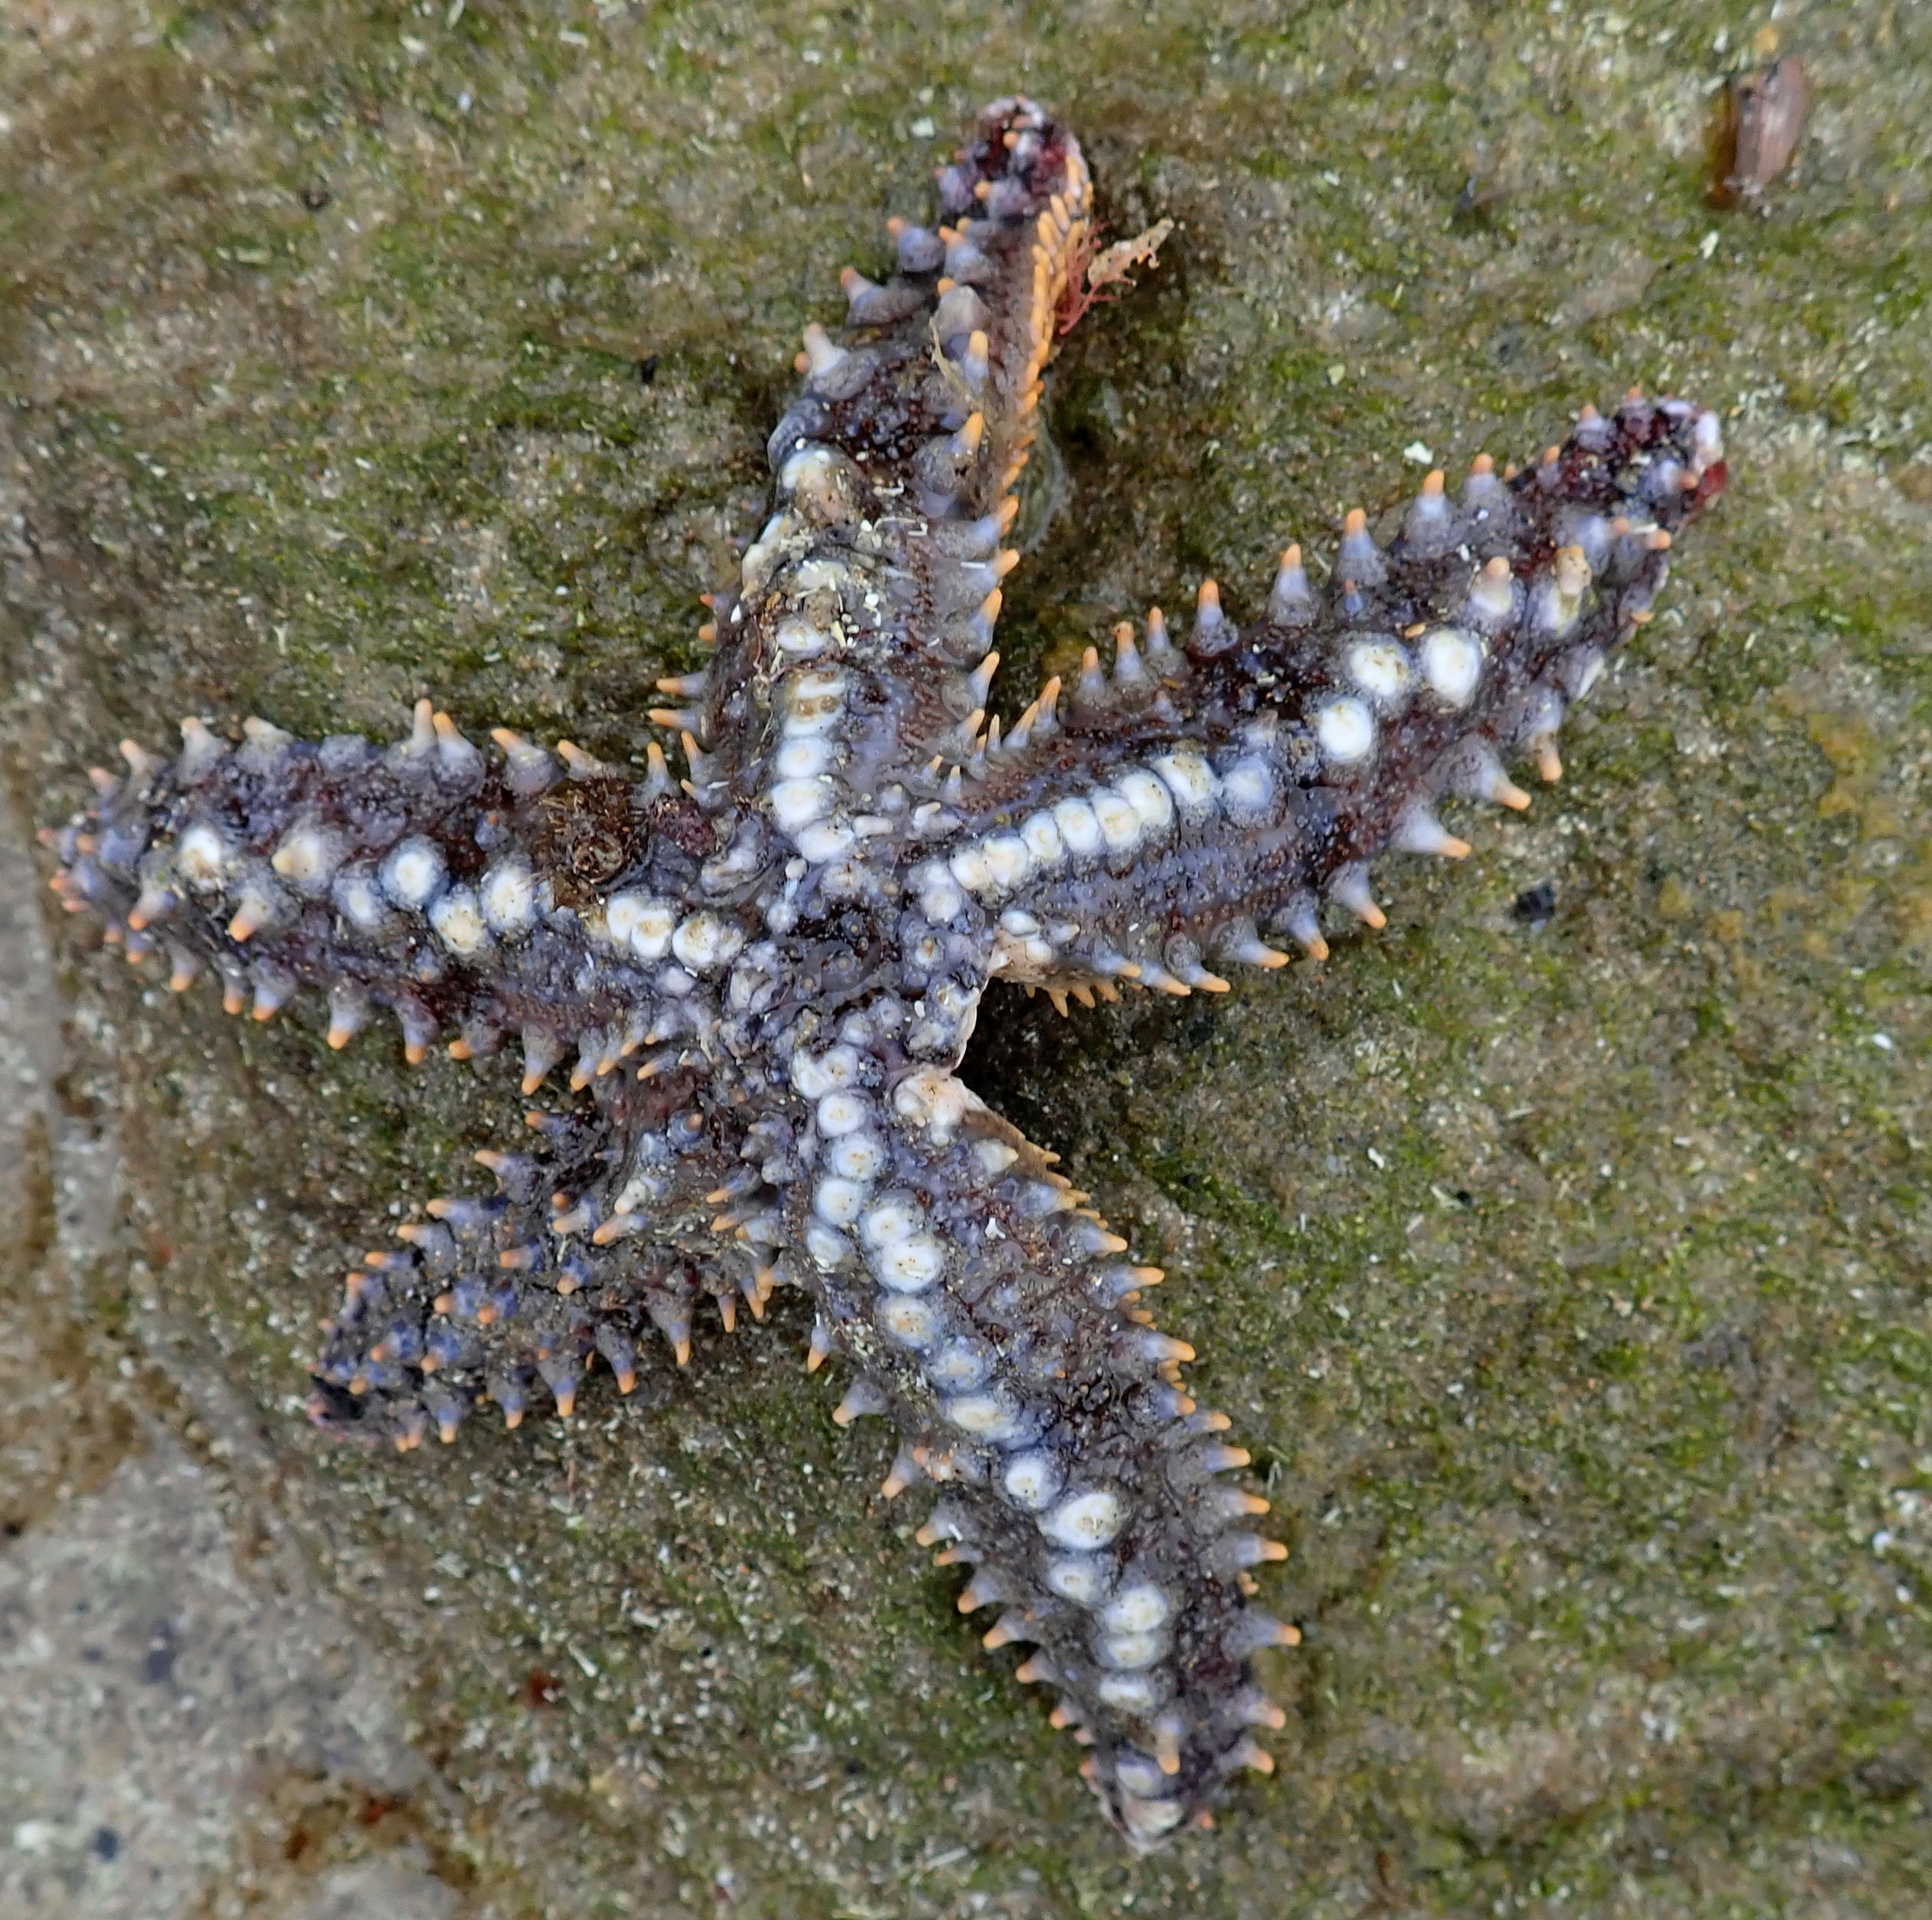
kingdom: Animalia
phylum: Echinodermata
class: Asteroidea
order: Forcipulatida
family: Asteriidae
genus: Marthasterias
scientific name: Marthasterias africana
